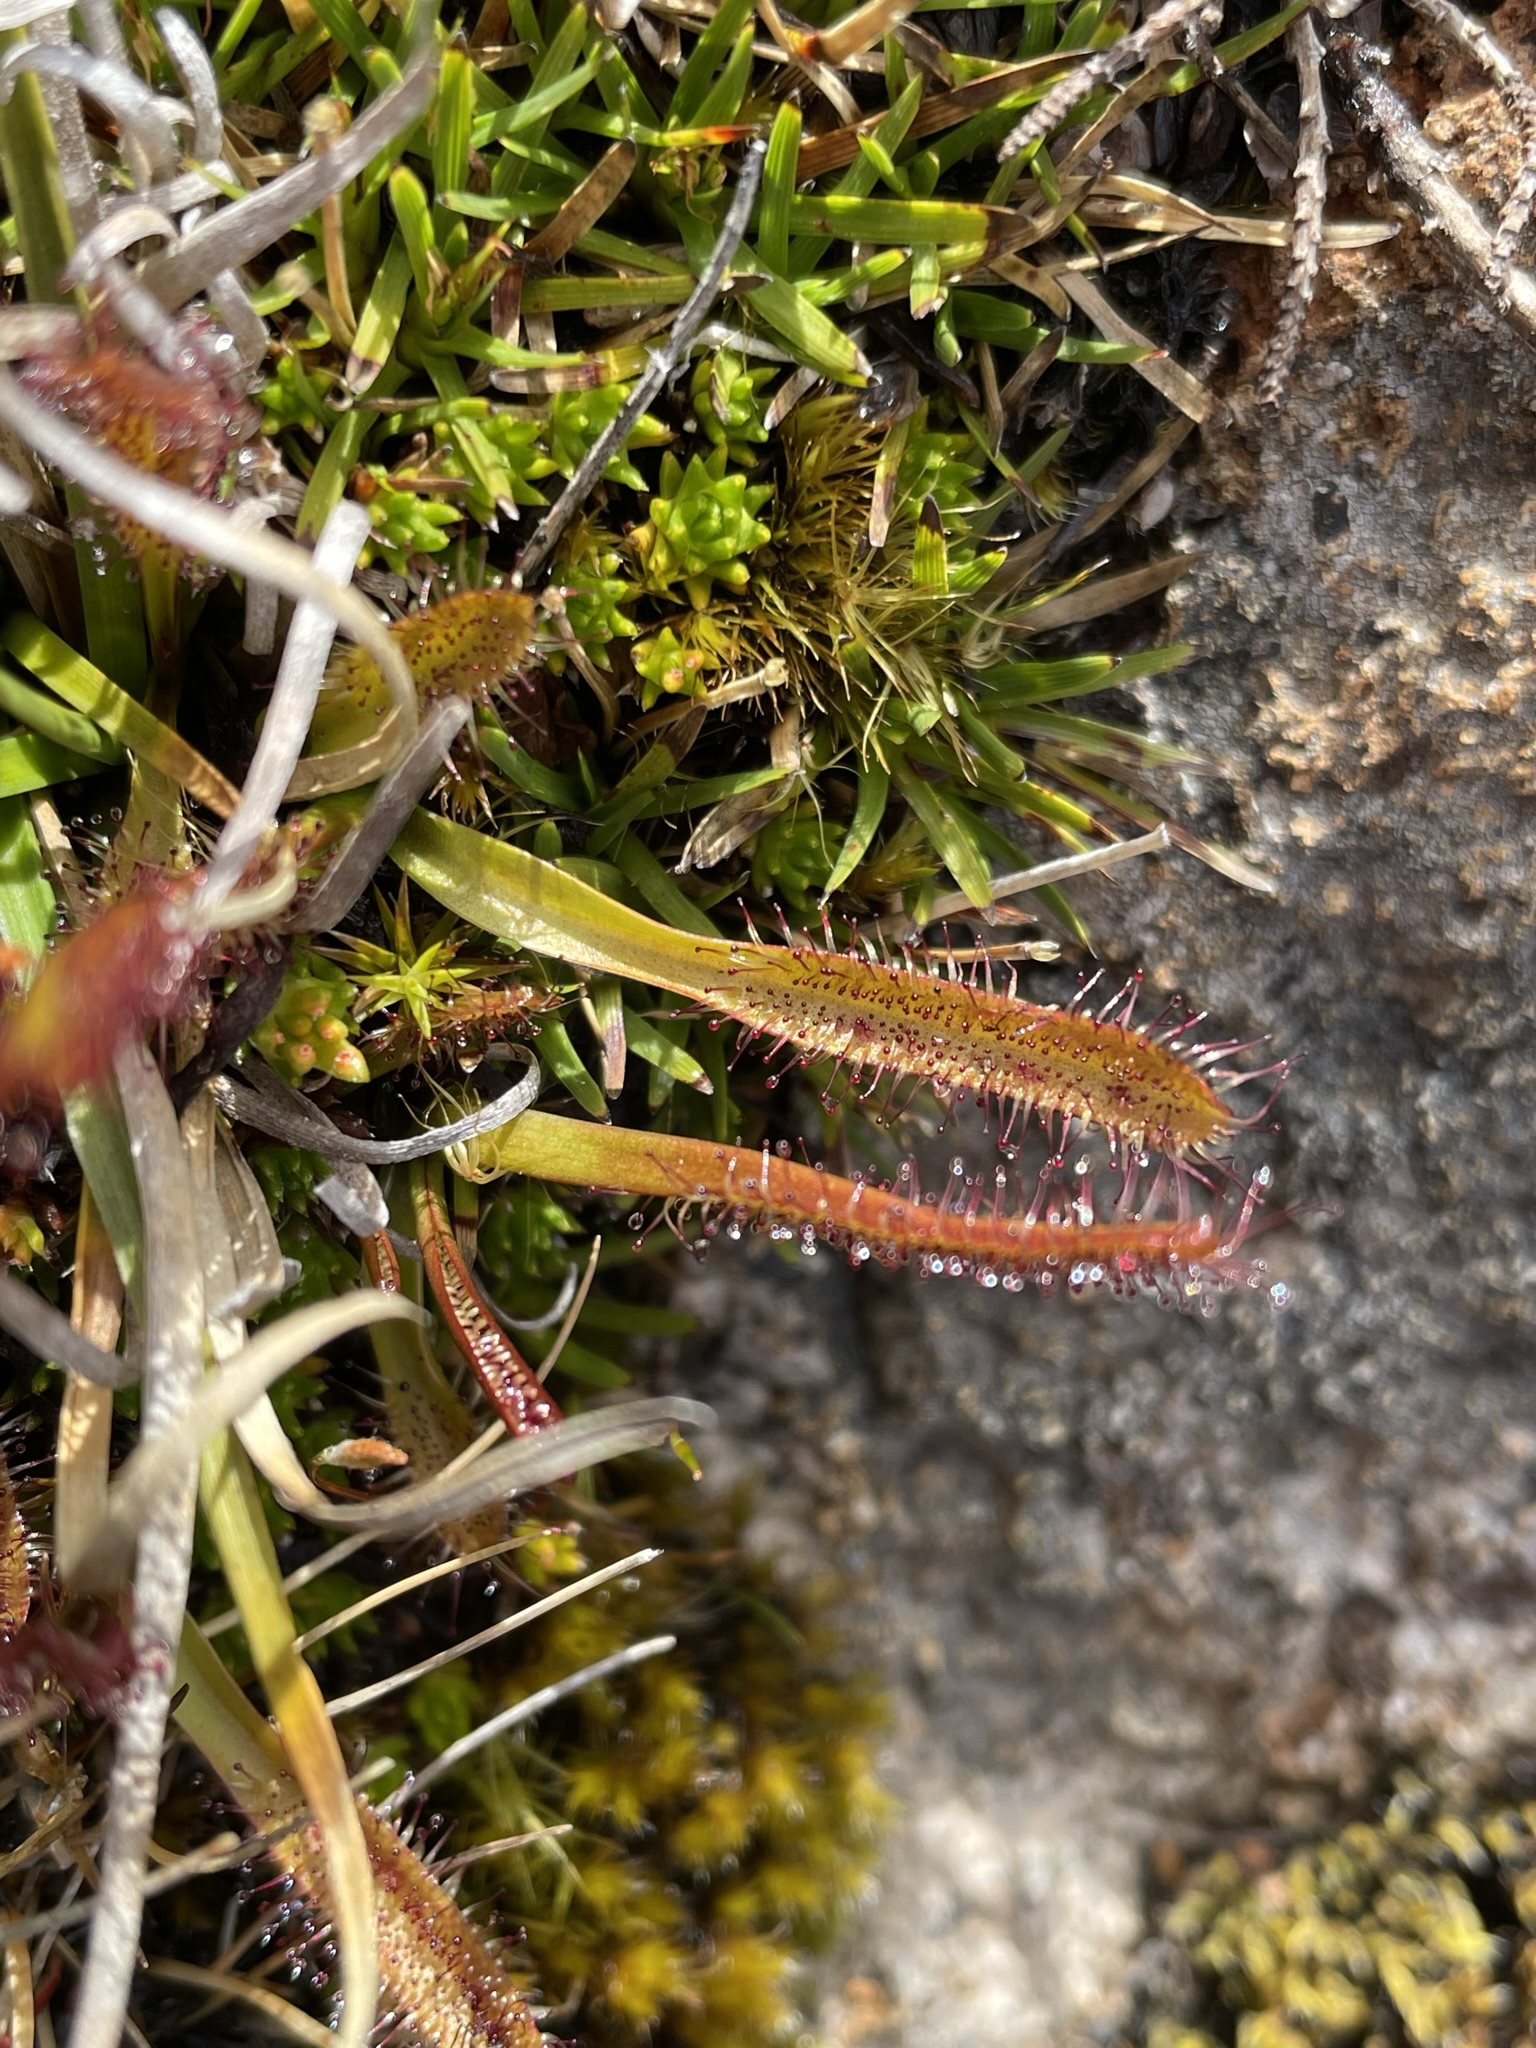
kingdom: Plantae
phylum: Tracheophyta
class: Magnoliopsida
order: Caryophyllales
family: Droseraceae
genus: Drosera
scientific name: Drosera arcturi
